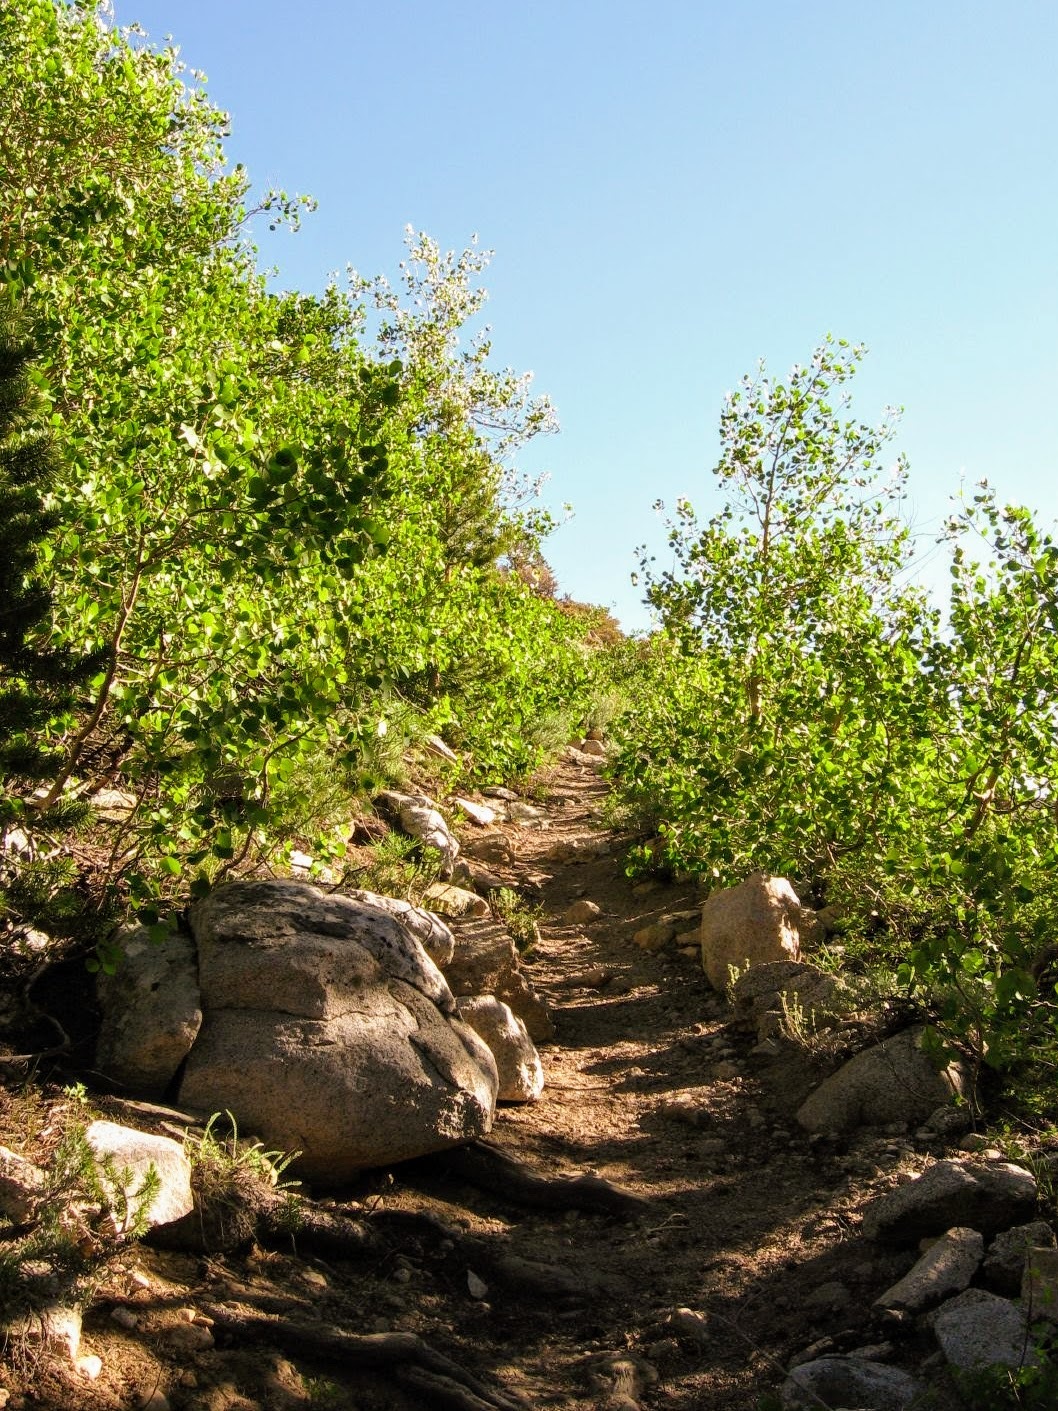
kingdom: Plantae
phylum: Tracheophyta
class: Magnoliopsida
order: Malpighiales
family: Salicaceae
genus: Populus
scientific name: Populus tremuloides
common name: Quaking aspen
